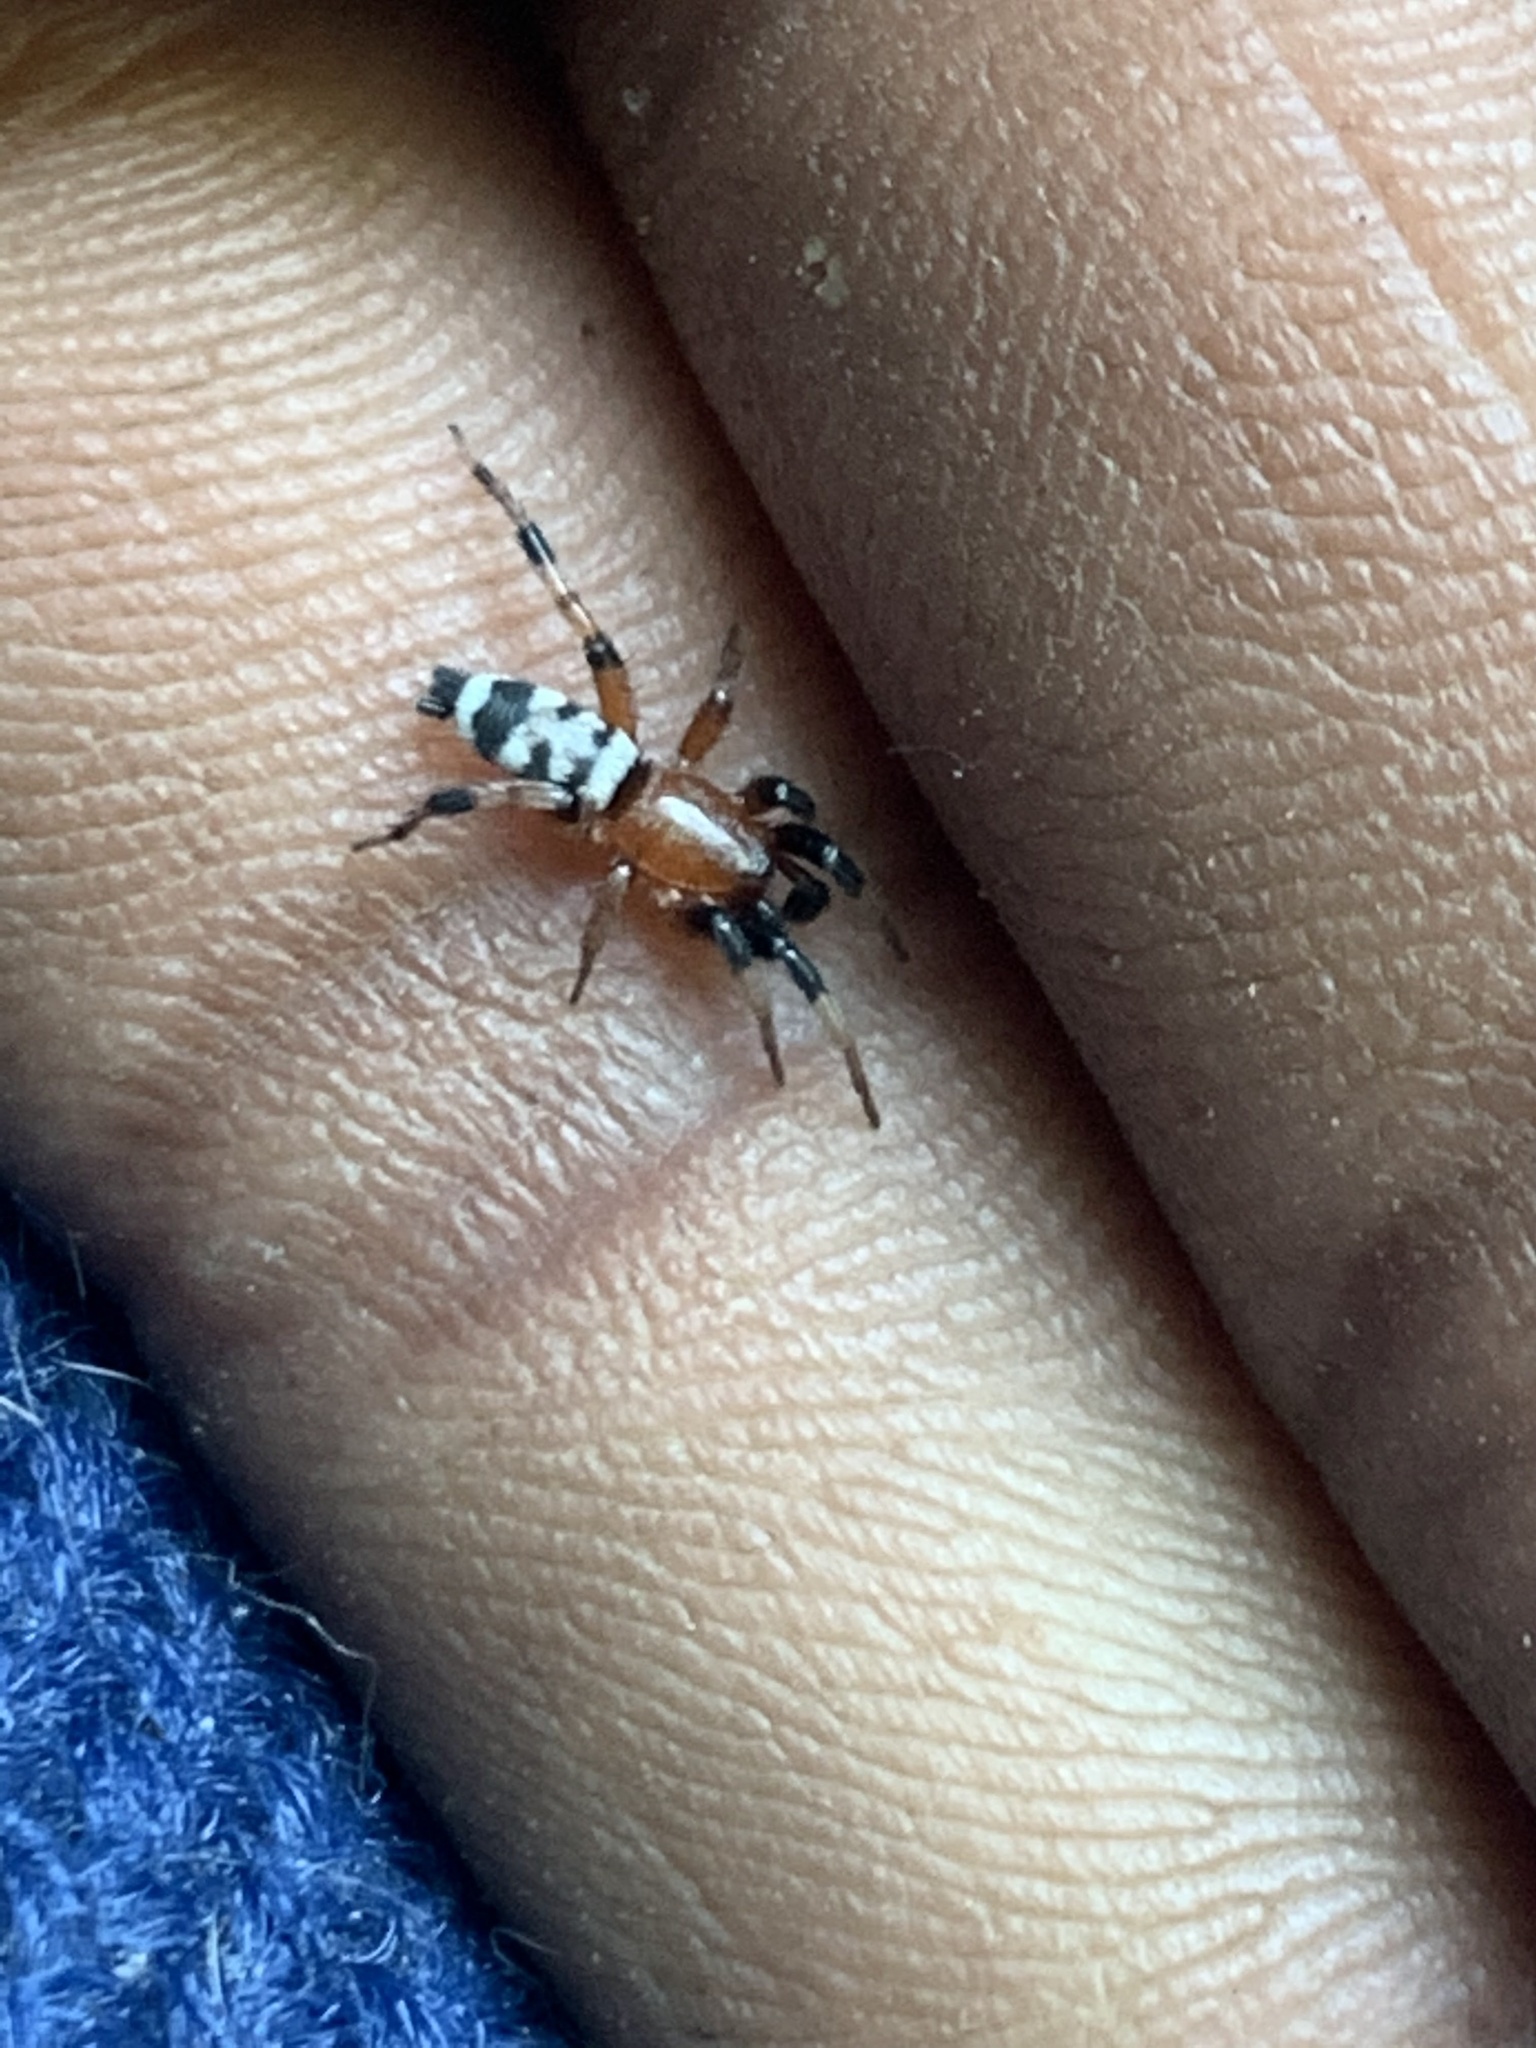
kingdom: Animalia
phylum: Arthropoda
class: Arachnida
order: Araneae
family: Gnaphosidae
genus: Sergiolus
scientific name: Sergiolus capulatus
